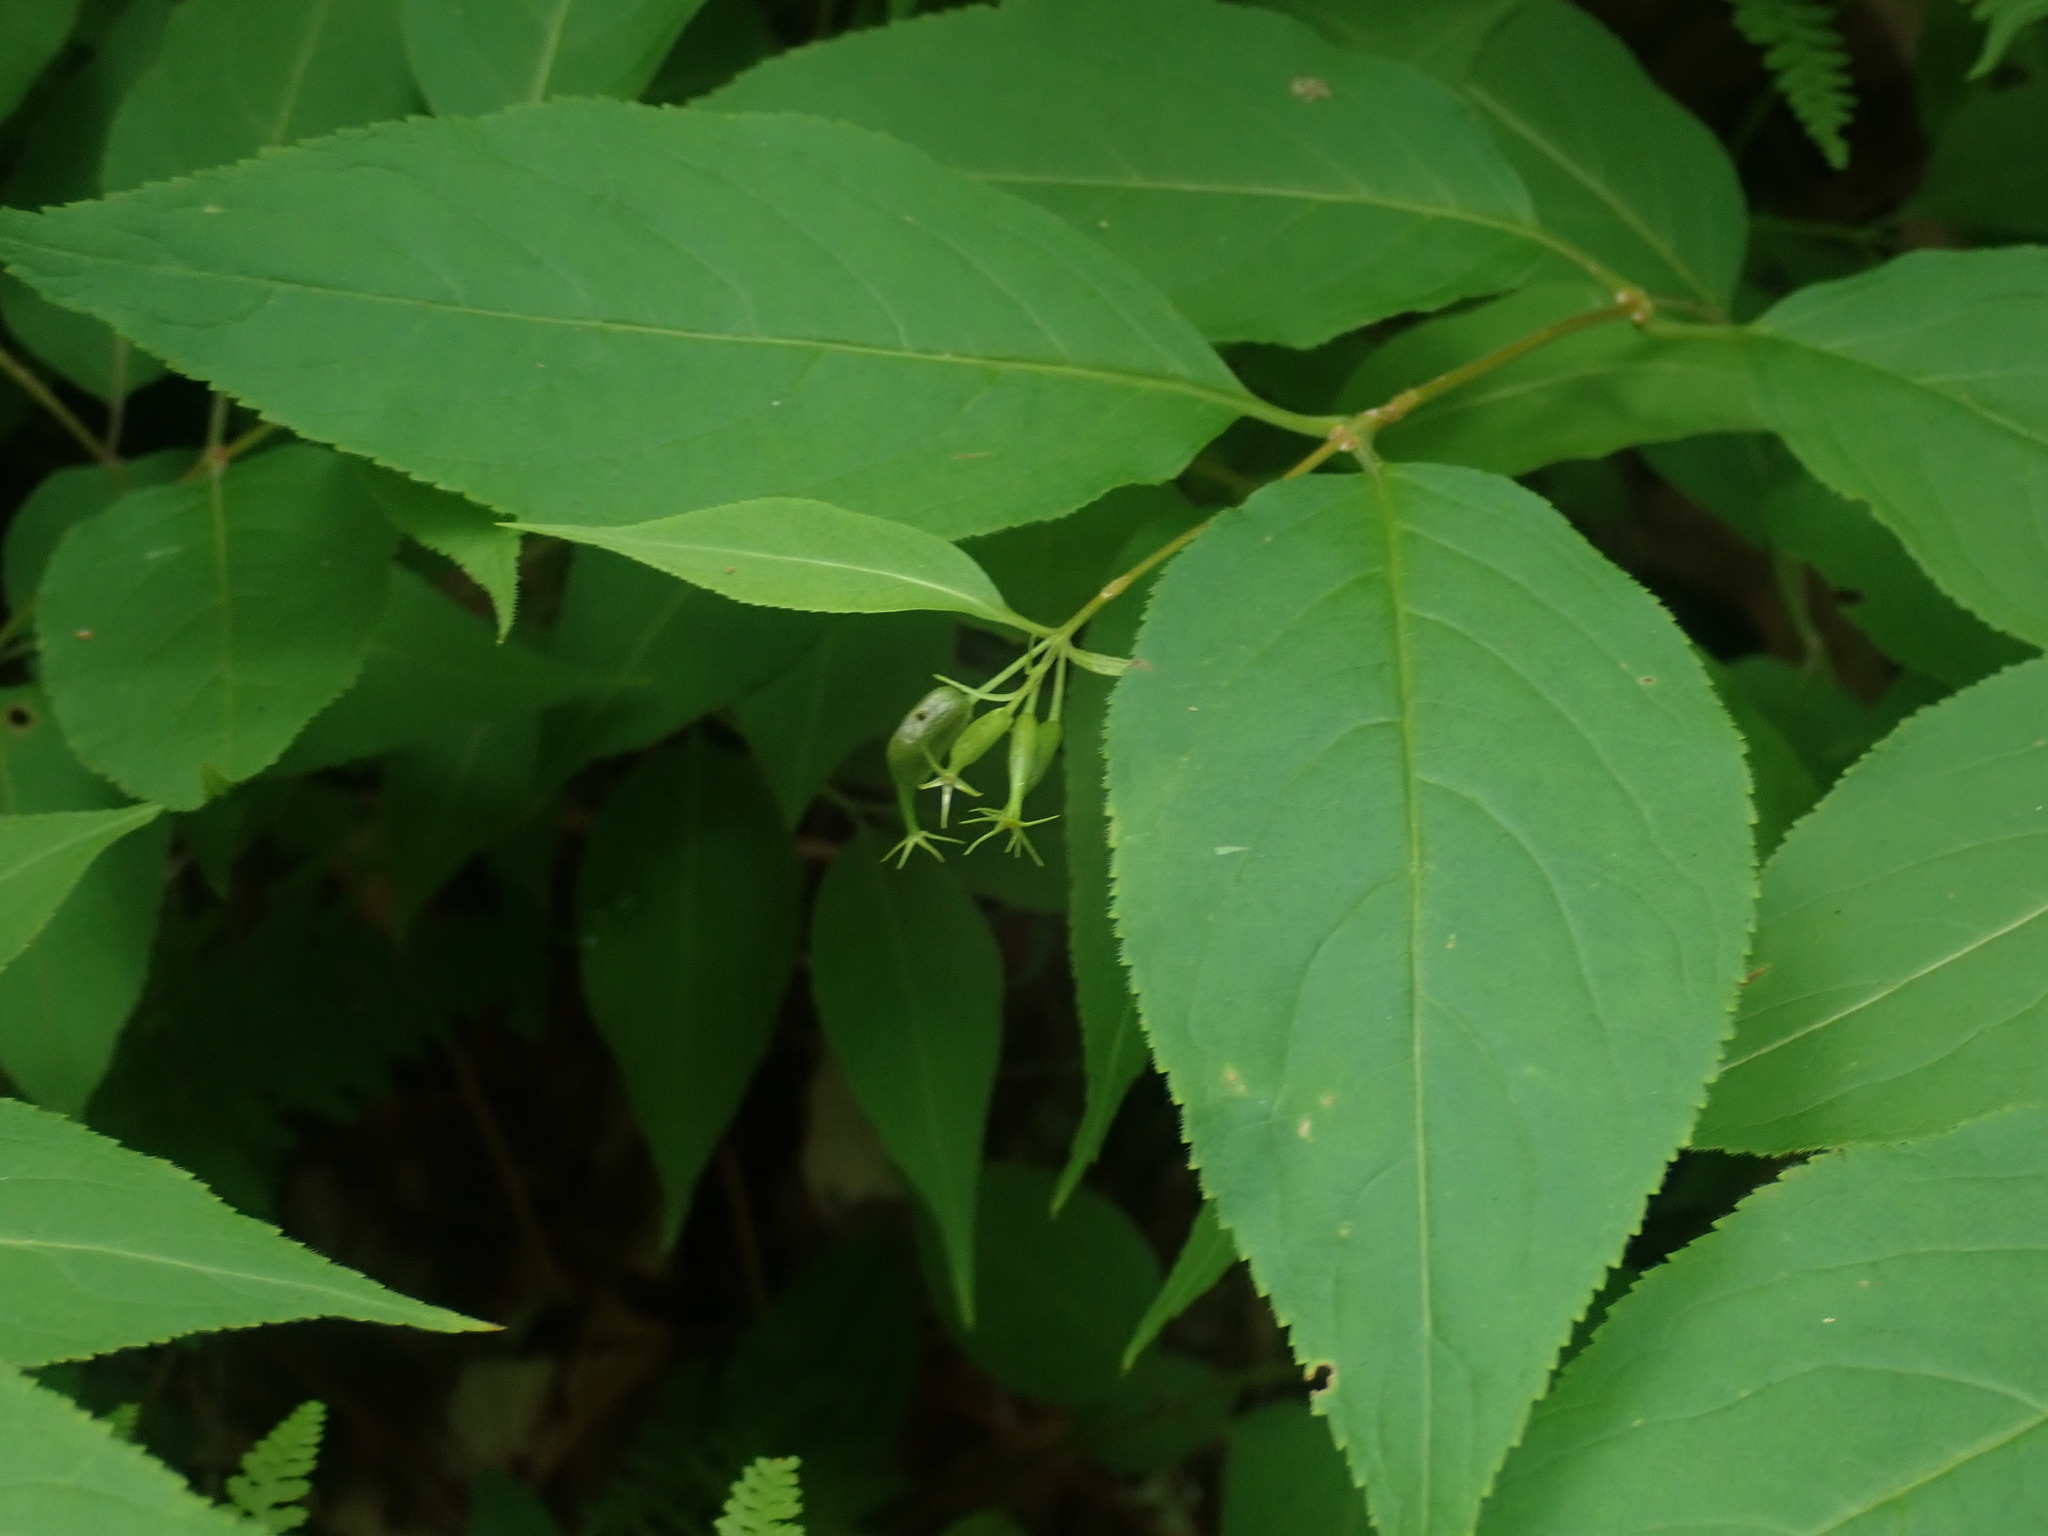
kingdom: Plantae
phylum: Tracheophyta
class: Magnoliopsida
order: Dipsacales
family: Caprifoliaceae
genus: Diervilla
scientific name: Diervilla lonicera
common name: Bush-honeysuckle
